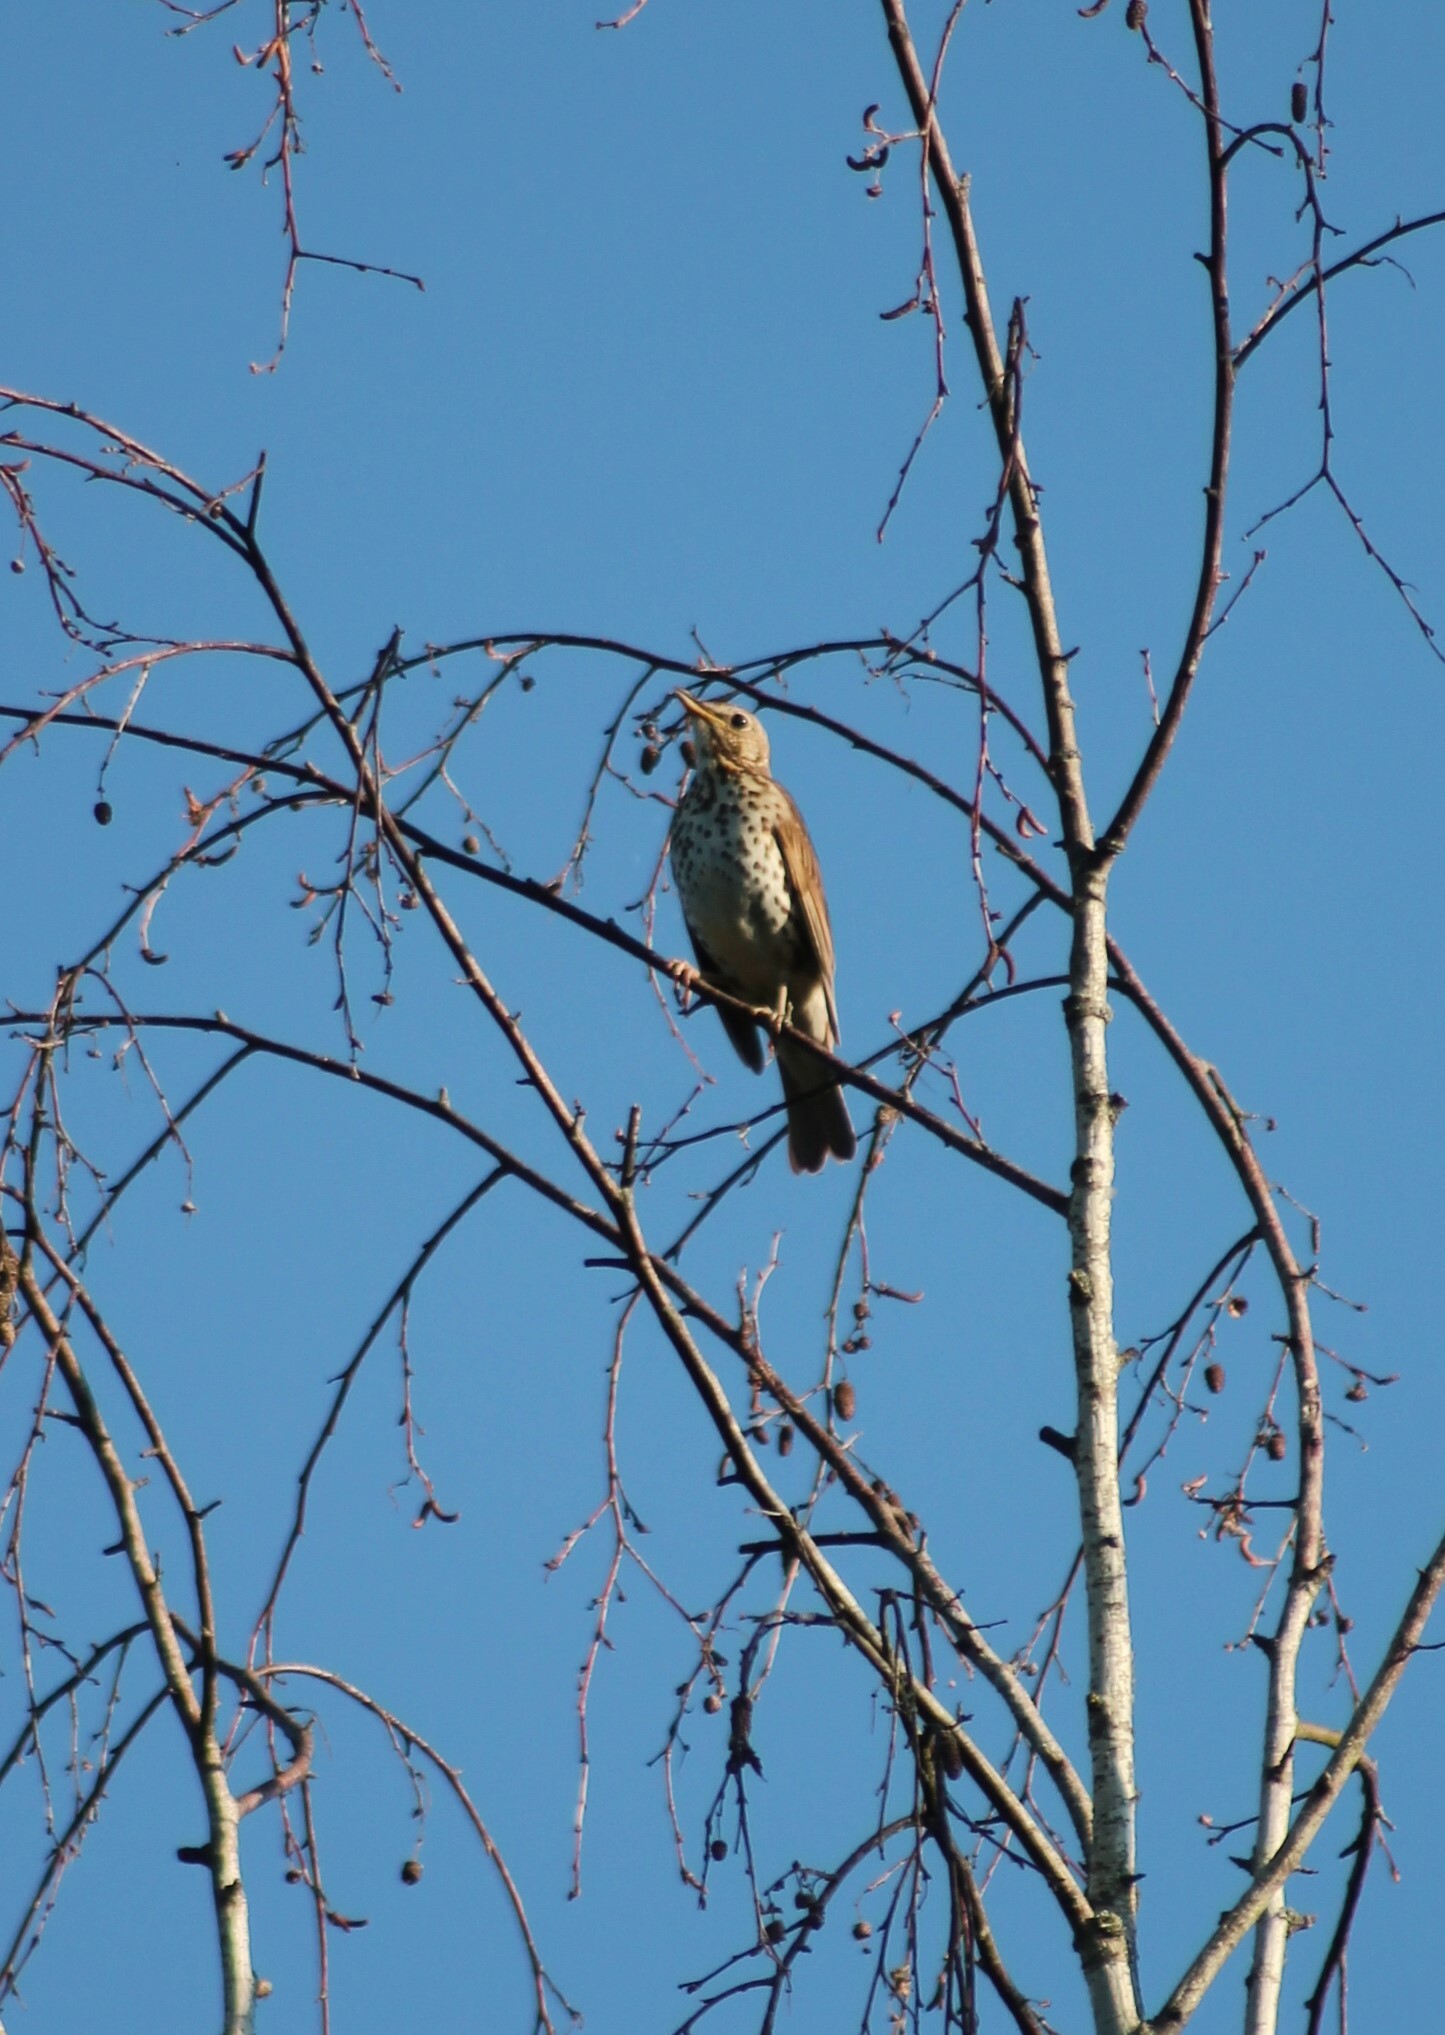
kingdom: Animalia
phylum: Chordata
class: Aves
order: Passeriformes
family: Turdidae
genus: Turdus
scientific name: Turdus philomelos
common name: Song thrush
